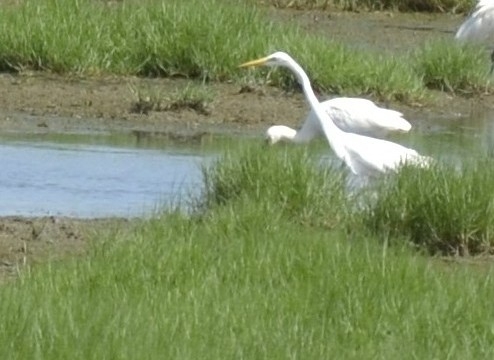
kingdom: Animalia
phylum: Chordata
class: Aves
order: Pelecaniformes
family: Ardeidae
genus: Ardea
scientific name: Ardea alba
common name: Great egret
